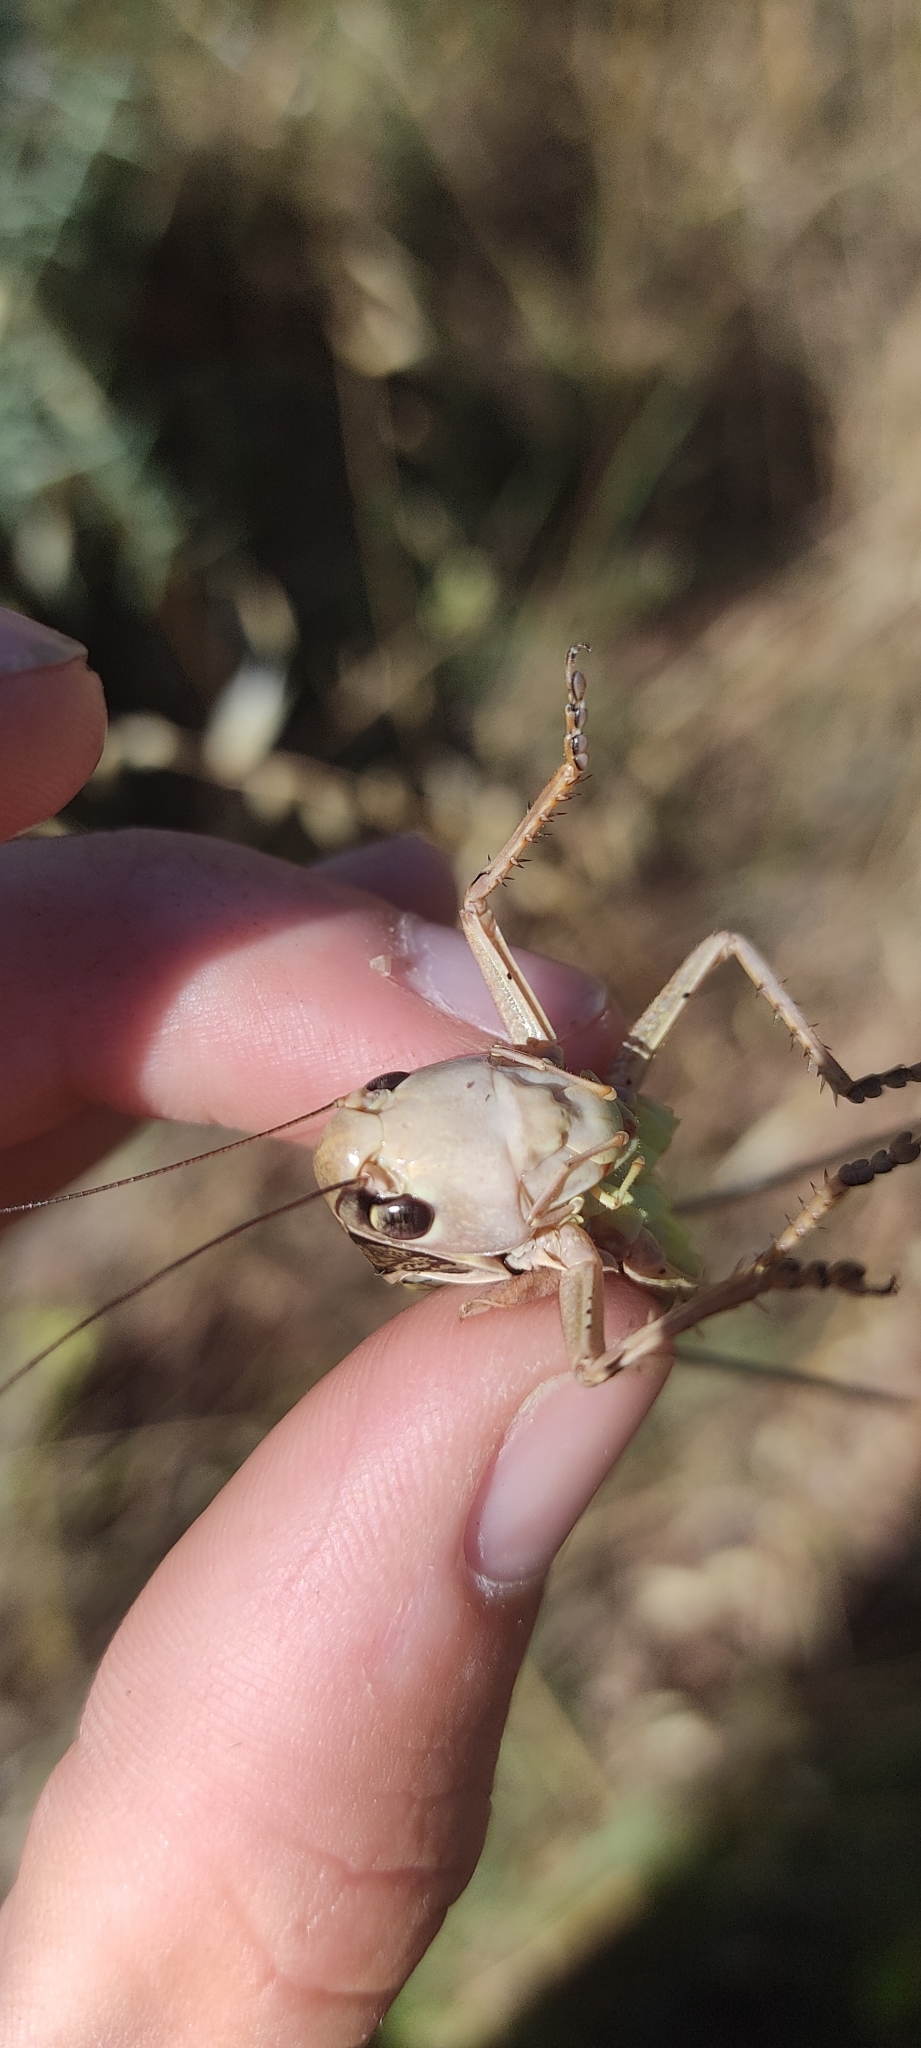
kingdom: Animalia
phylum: Arthropoda
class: Insecta
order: Orthoptera
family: Tettigoniidae
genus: Decticus
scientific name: Decticus albifrons
